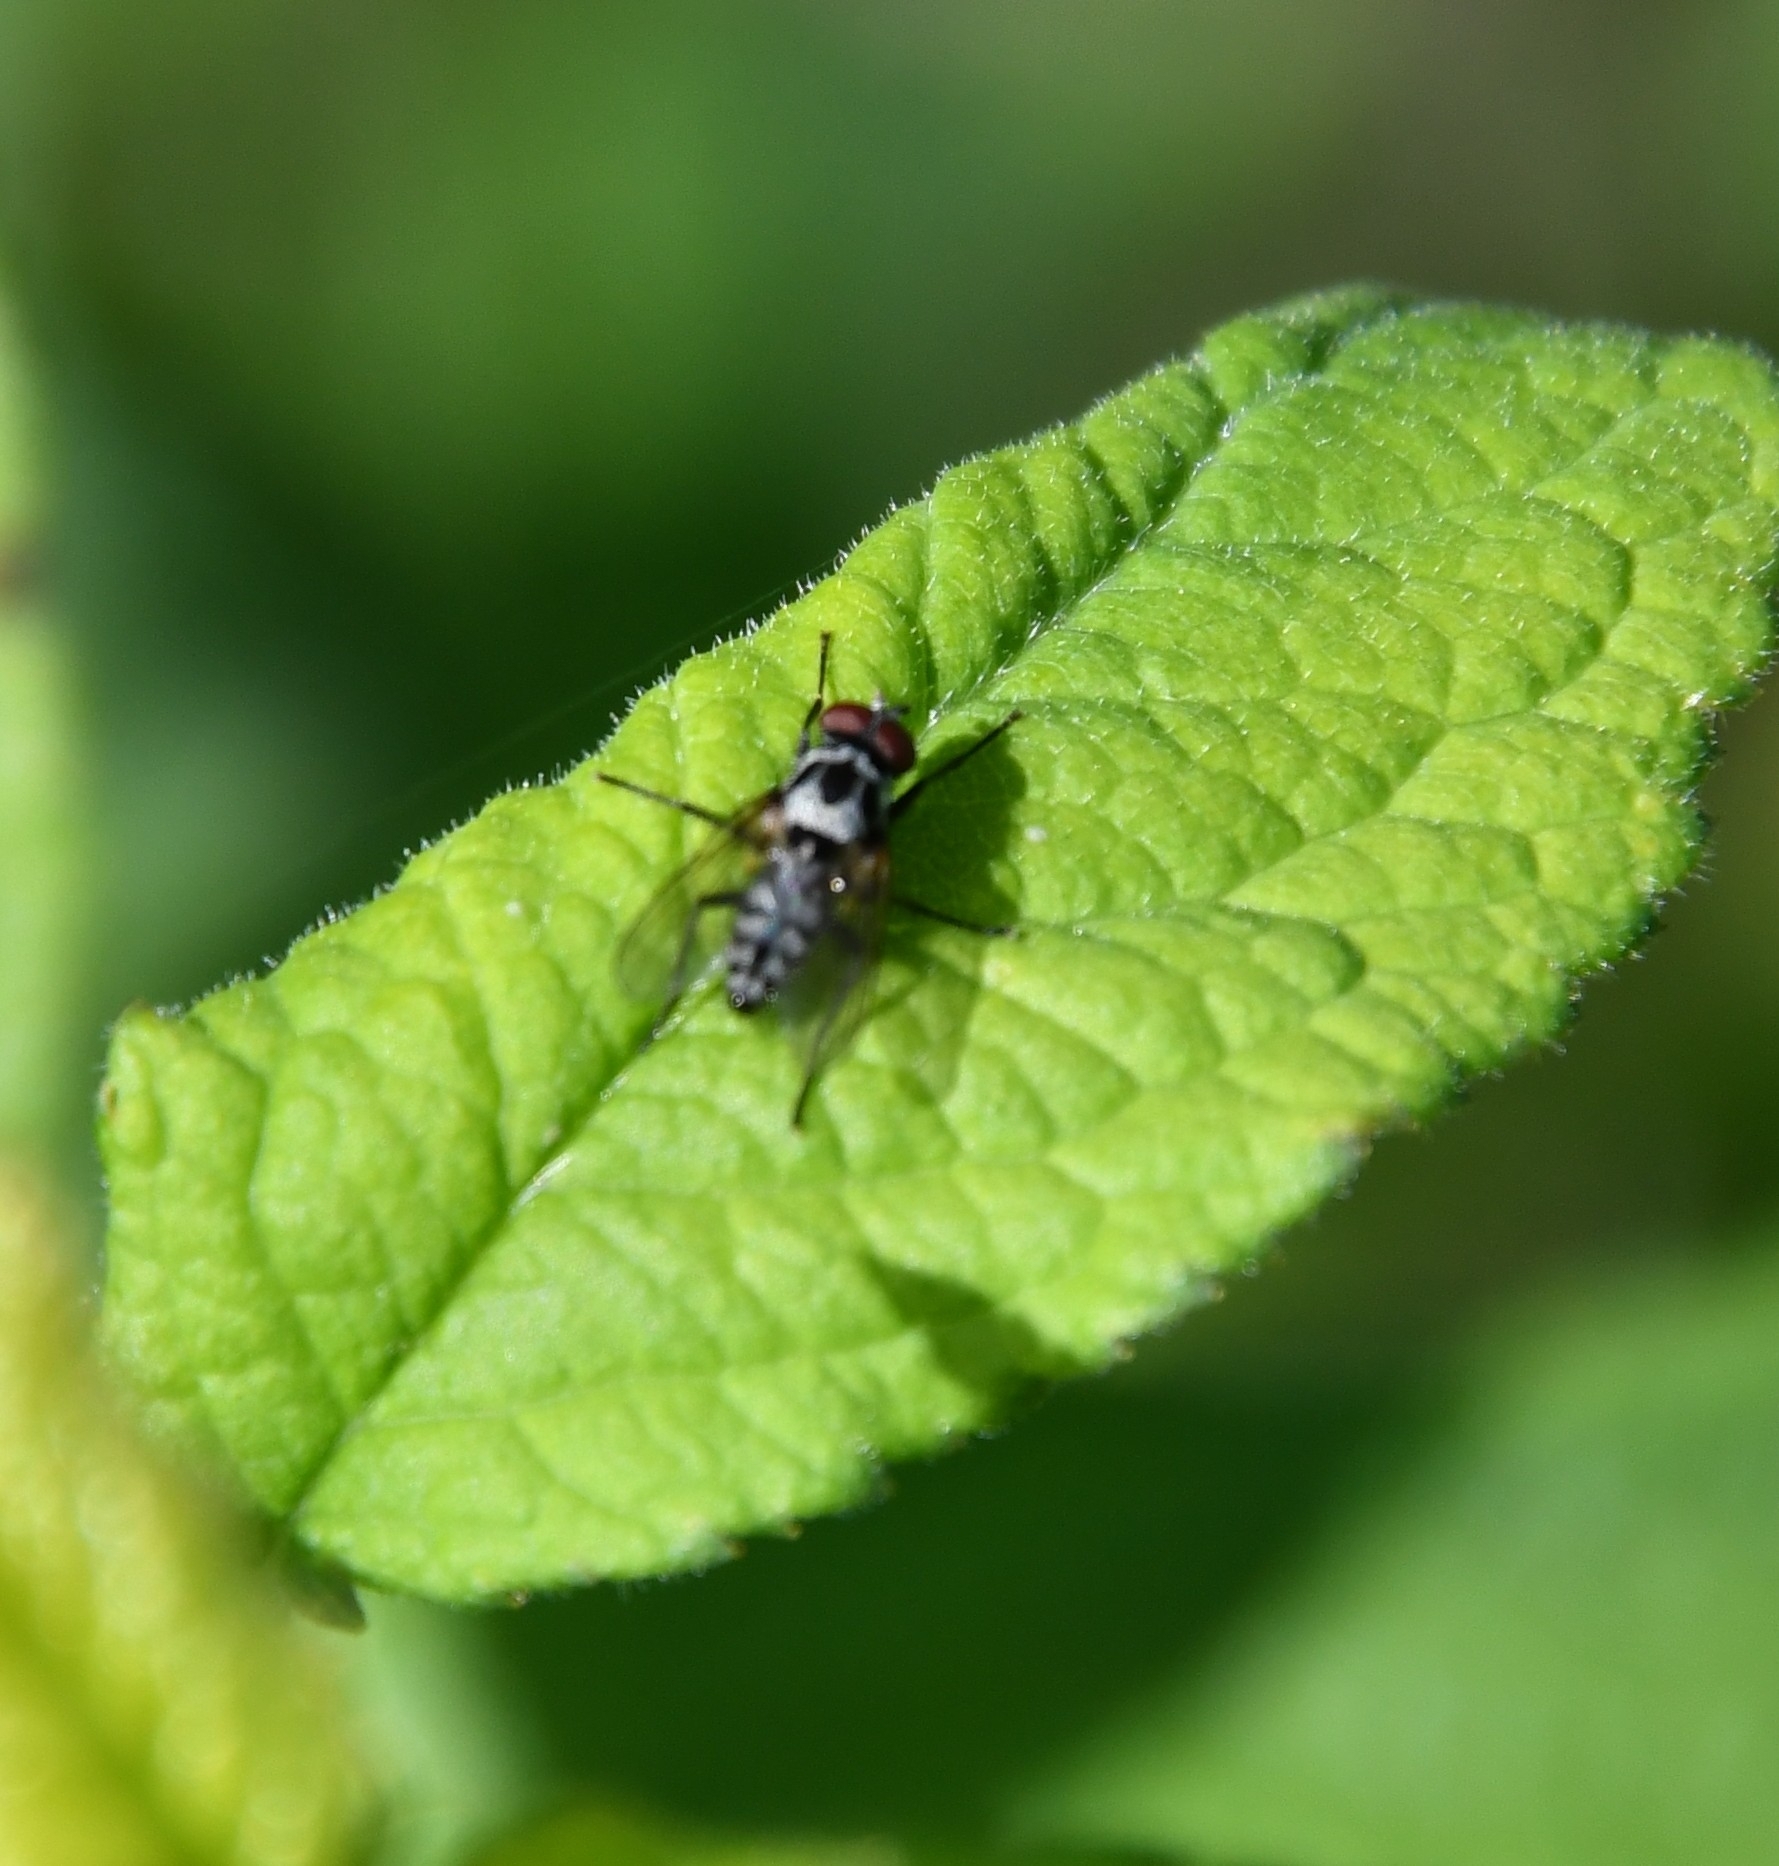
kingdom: Animalia
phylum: Arthropoda
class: Insecta
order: Diptera
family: Anthomyiidae
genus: Anthomyia
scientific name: Anthomyia procellaris
